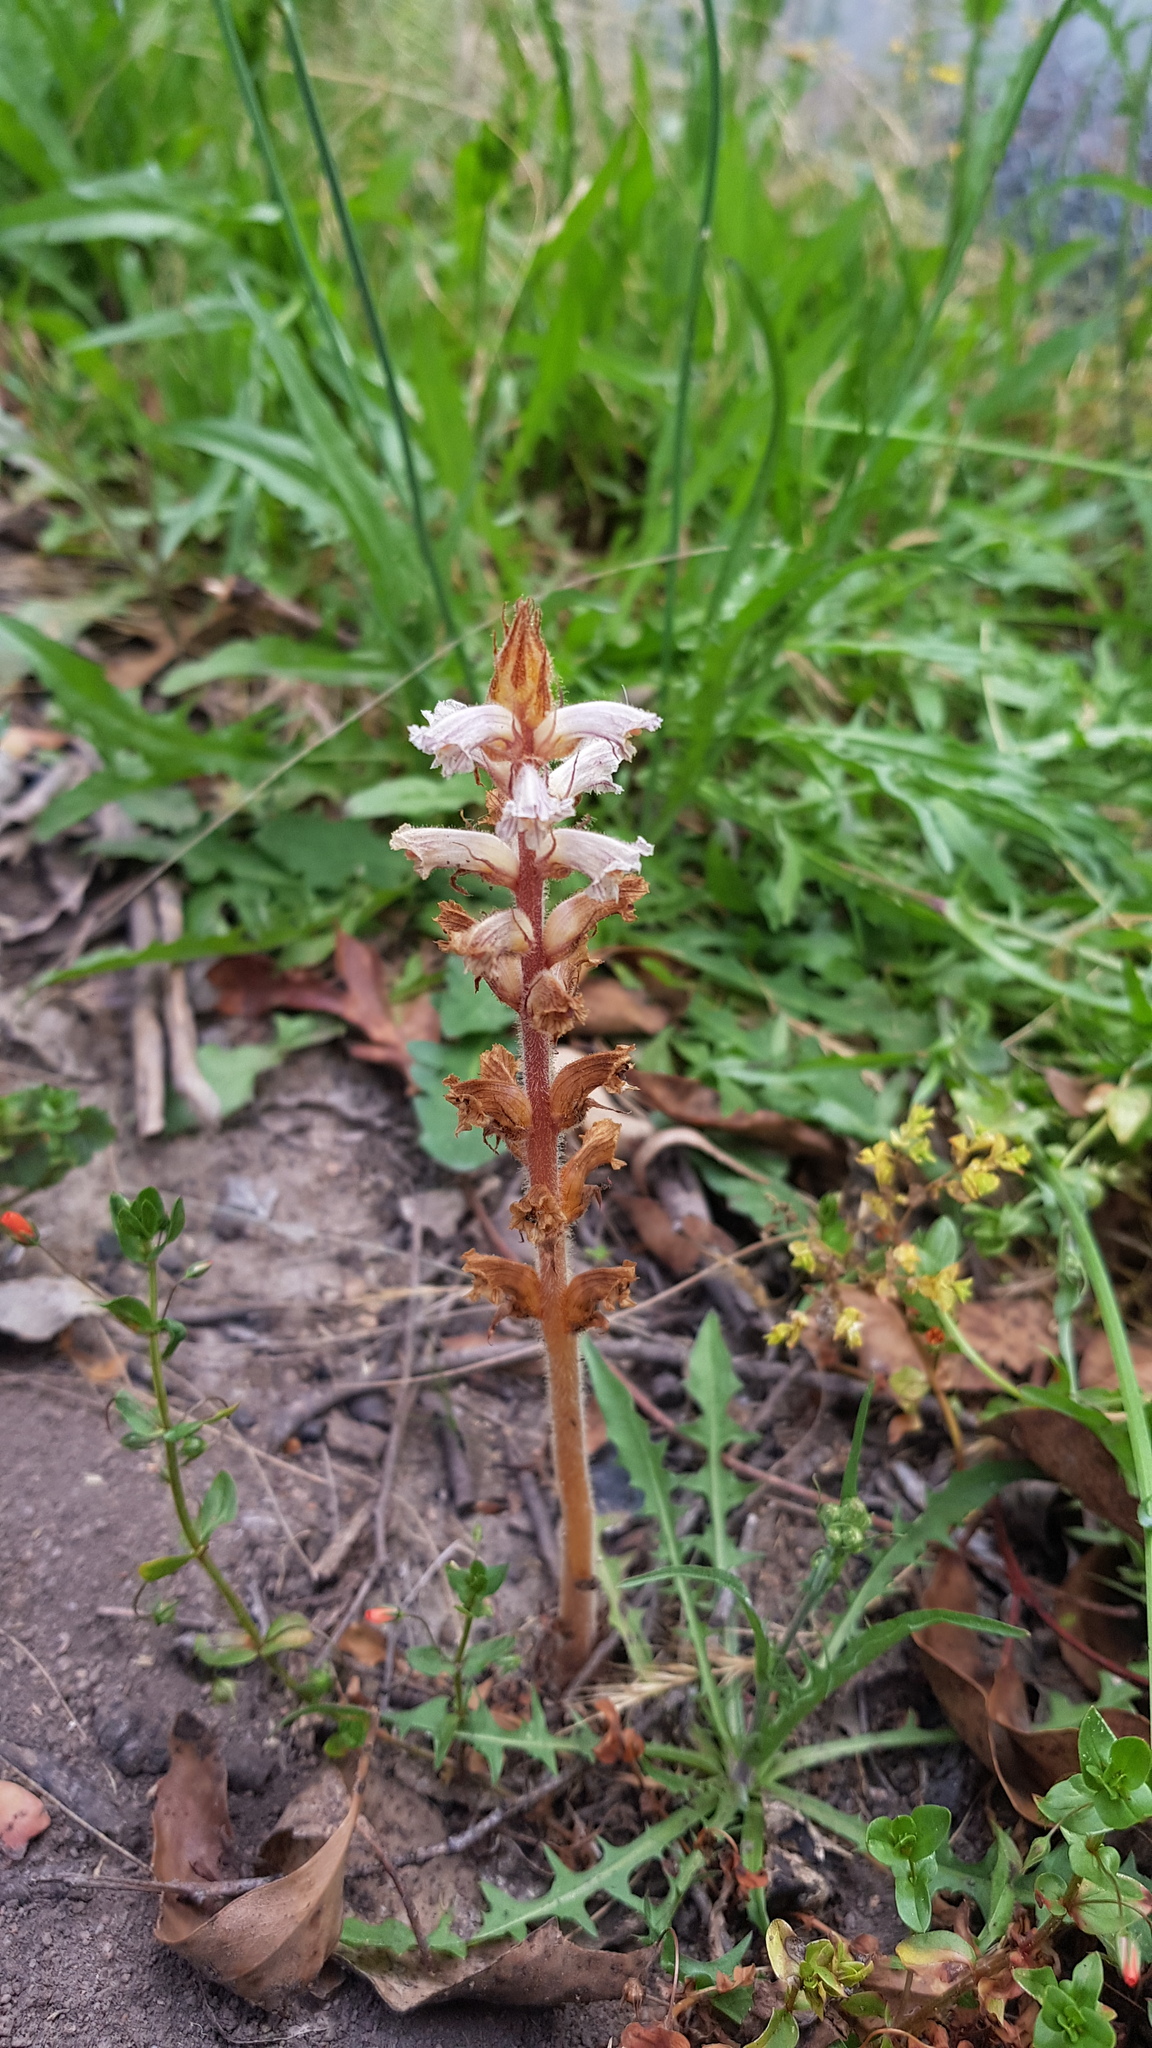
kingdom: Plantae
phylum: Tracheophyta
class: Magnoliopsida
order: Lamiales
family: Orobanchaceae
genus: Orobanche
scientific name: Orobanche minor
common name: Common broomrape
